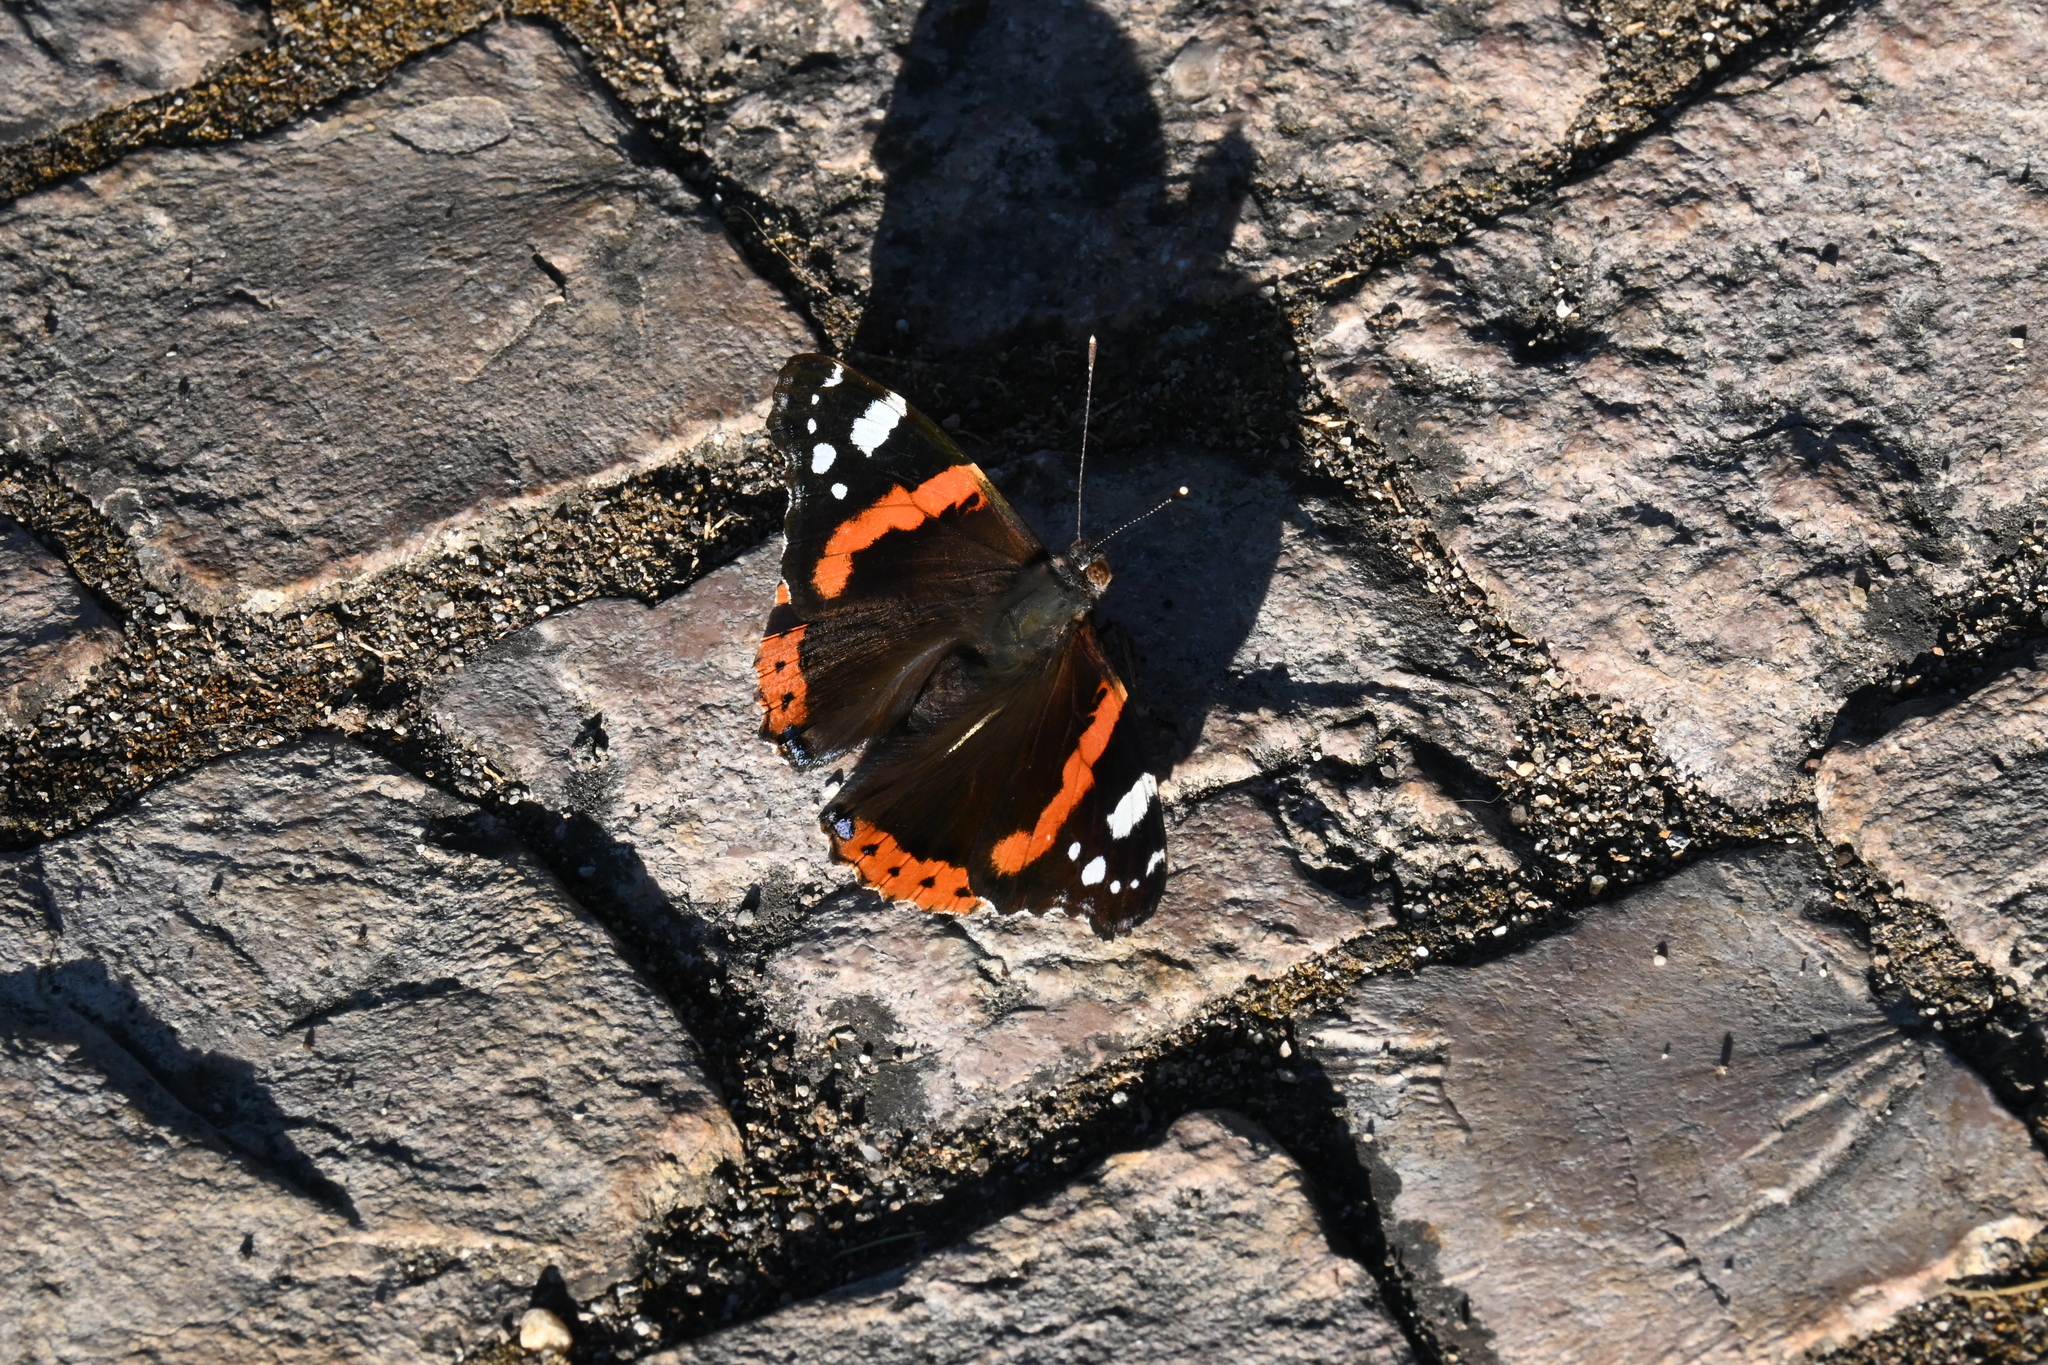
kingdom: Animalia
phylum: Arthropoda
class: Insecta
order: Lepidoptera
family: Nymphalidae
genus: Vanessa
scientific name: Vanessa atalanta
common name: Red admiral
